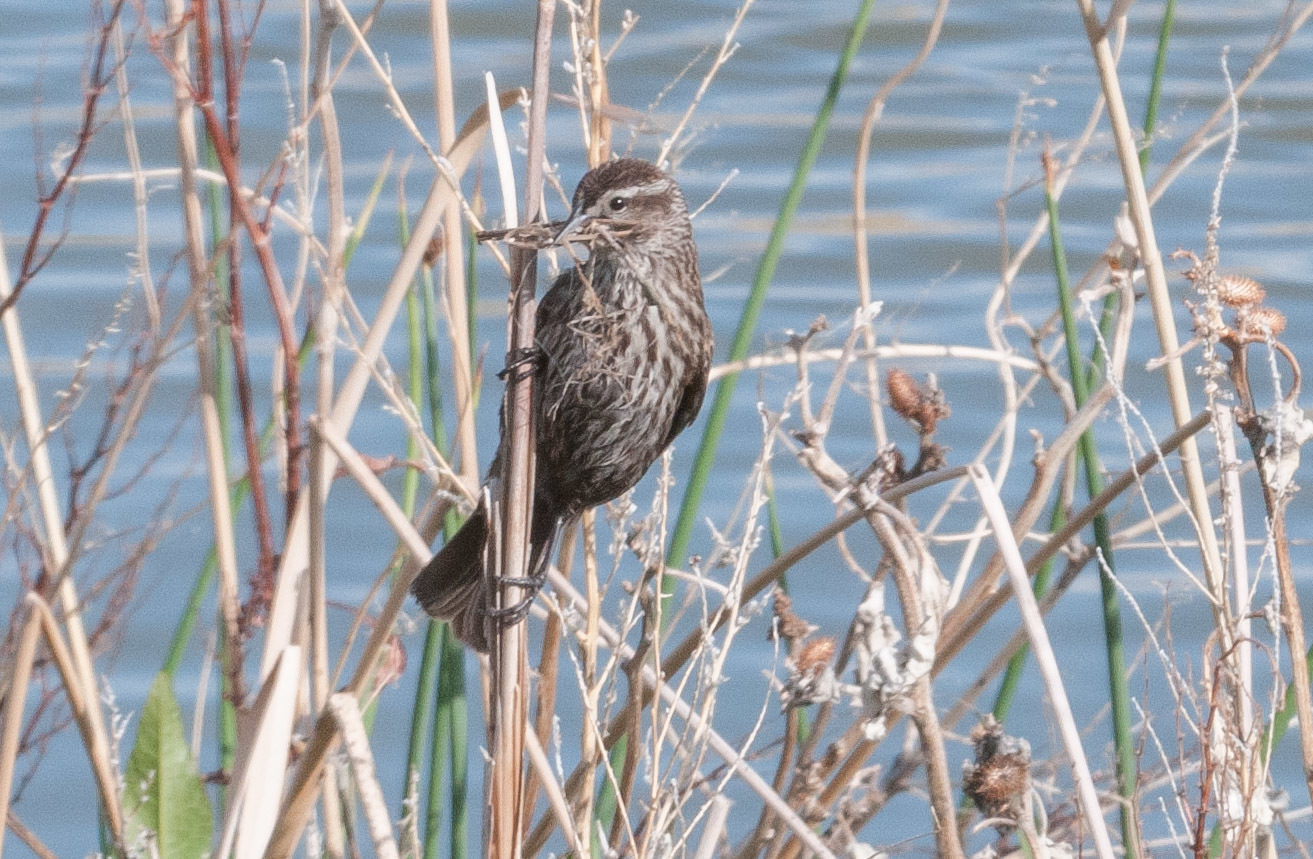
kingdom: Animalia
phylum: Chordata
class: Aves
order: Passeriformes
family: Icteridae
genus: Agelaius
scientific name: Agelaius phoeniceus
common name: Red-winged blackbird
